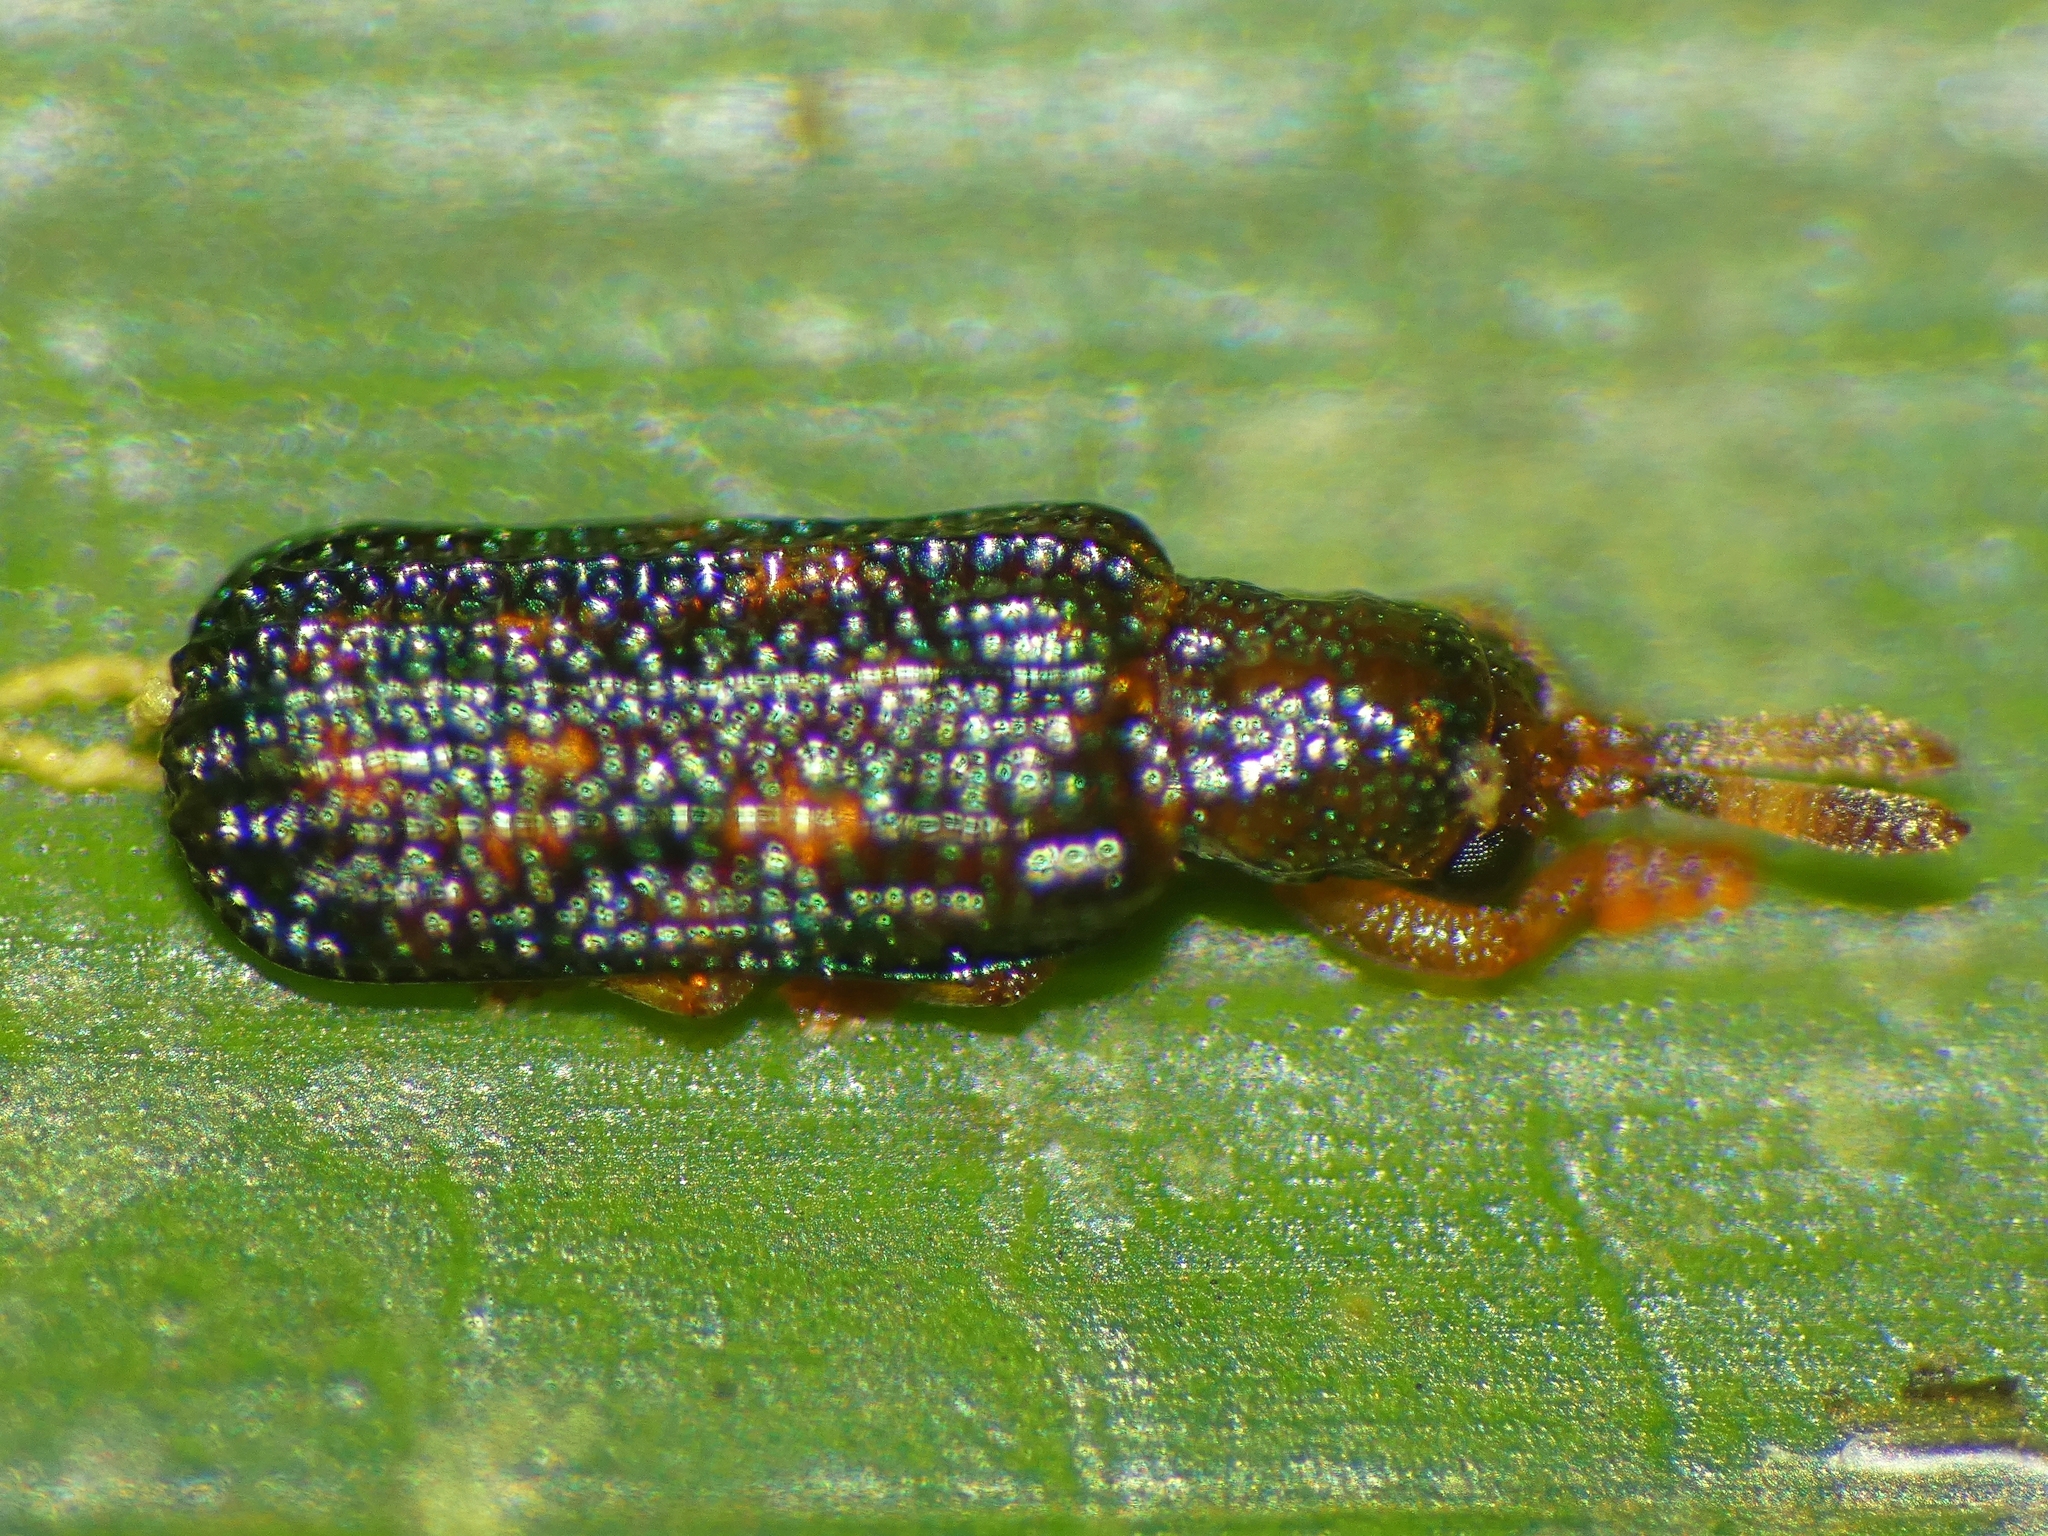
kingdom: Animalia
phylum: Arthropoda
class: Insecta
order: Coleoptera
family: Chrysomelidae
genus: Heterrhachispa
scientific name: Heterrhachispa kurandae
